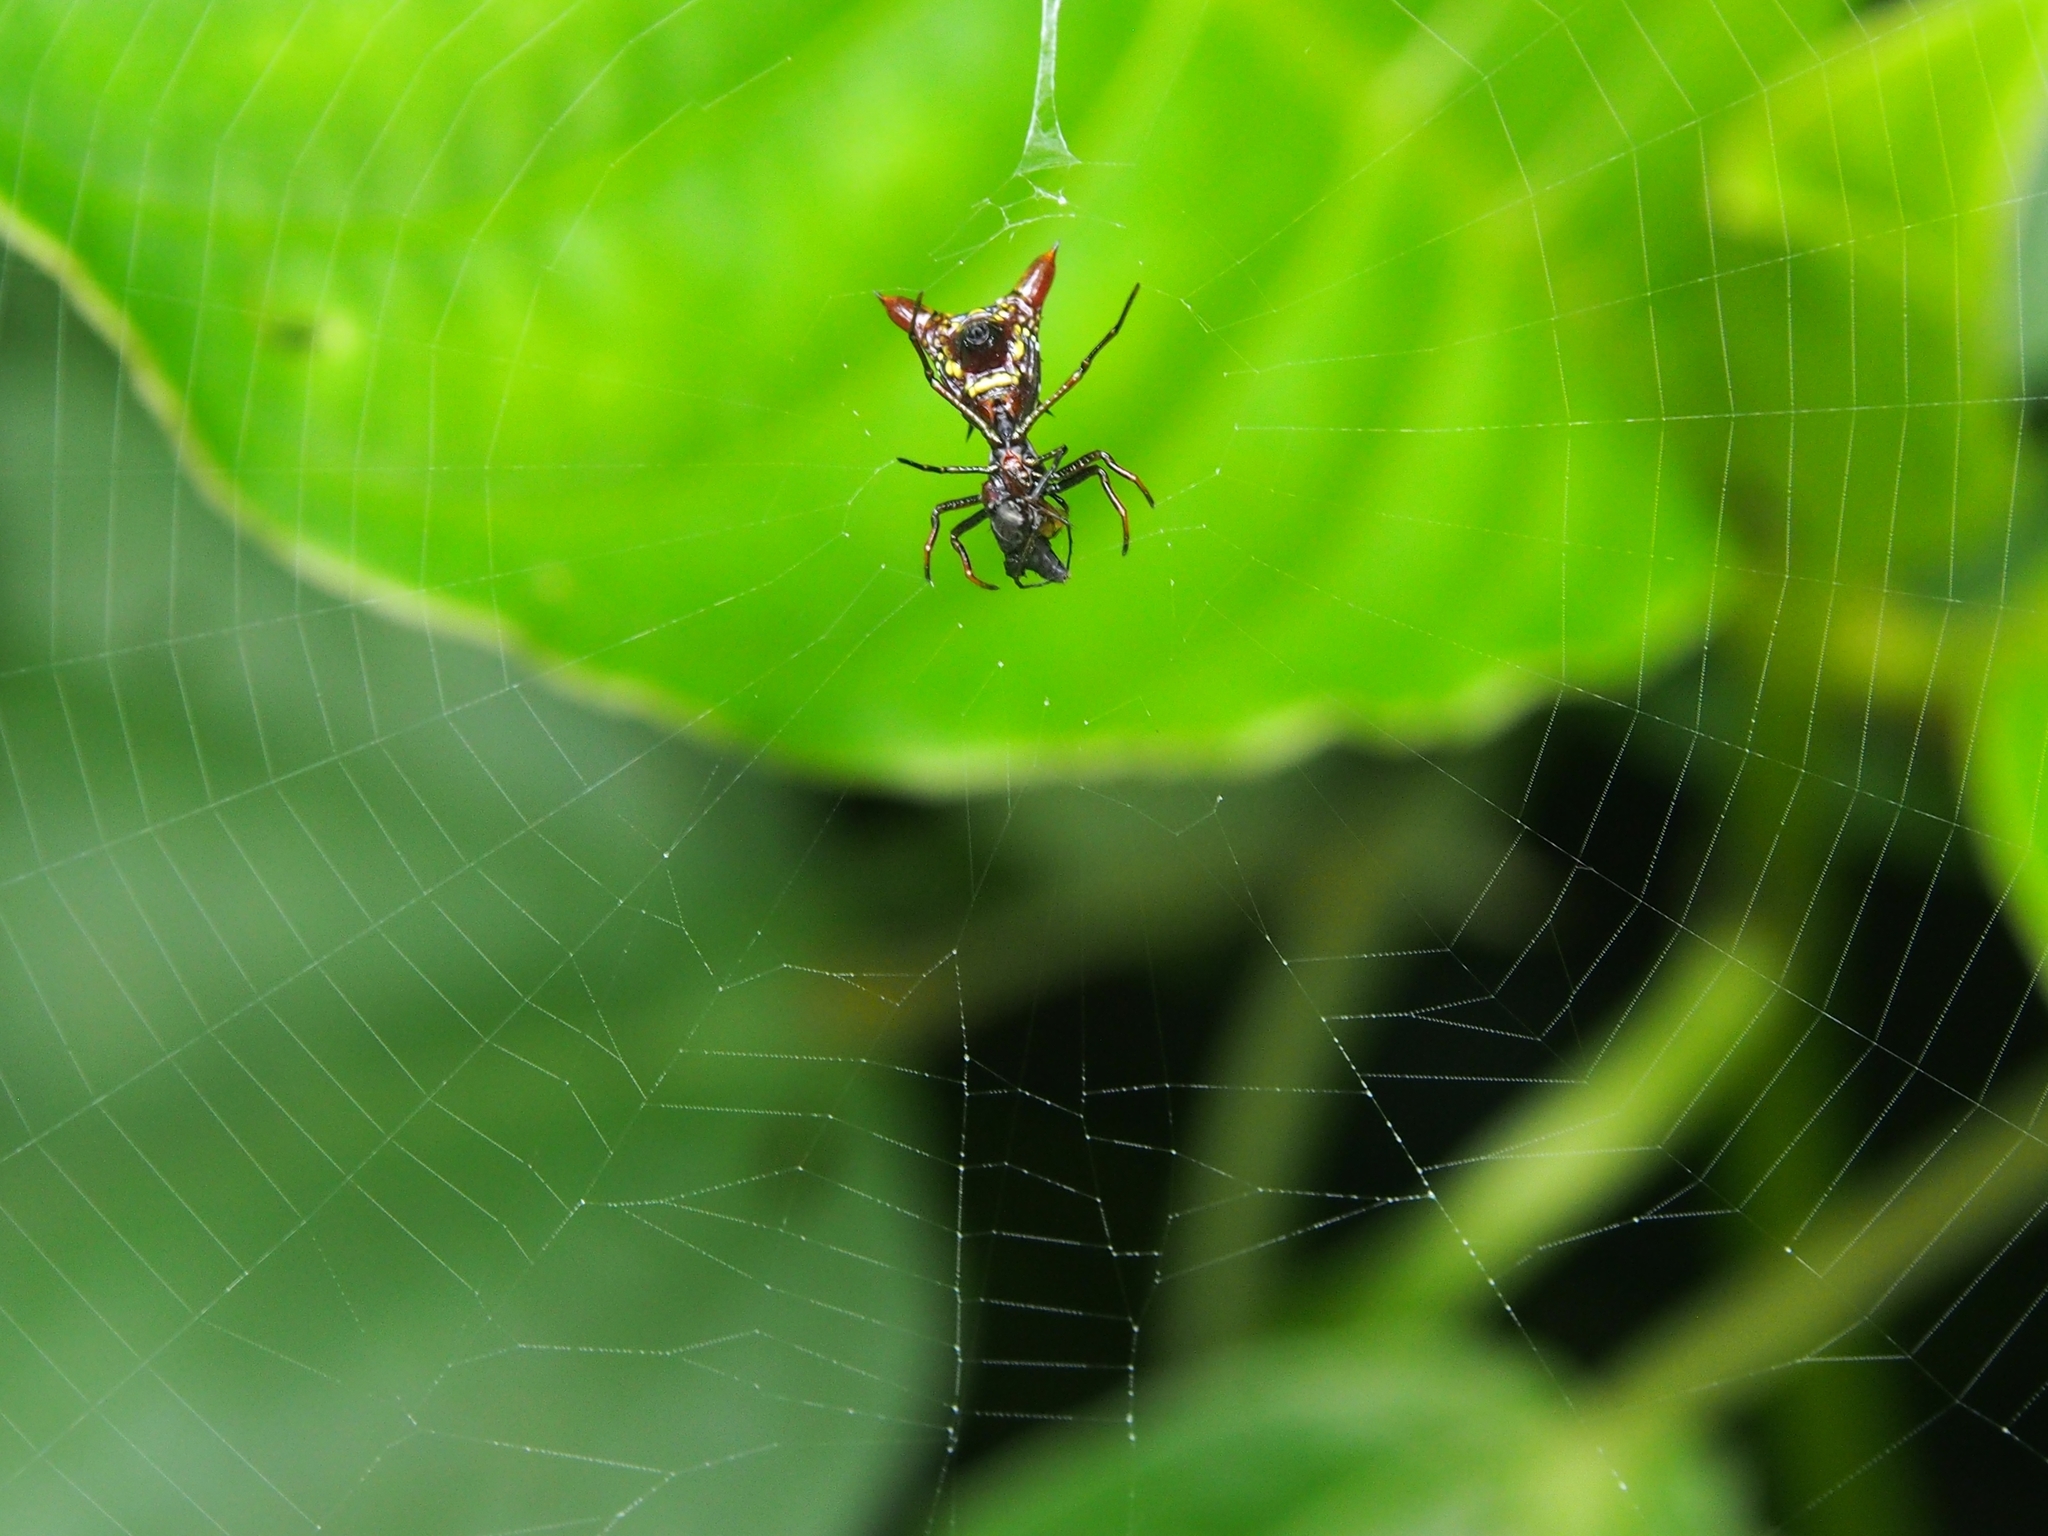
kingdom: Animalia
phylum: Arthropoda
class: Arachnida
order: Araneae
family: Araneidae
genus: Micrathena
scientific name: Micrathena
